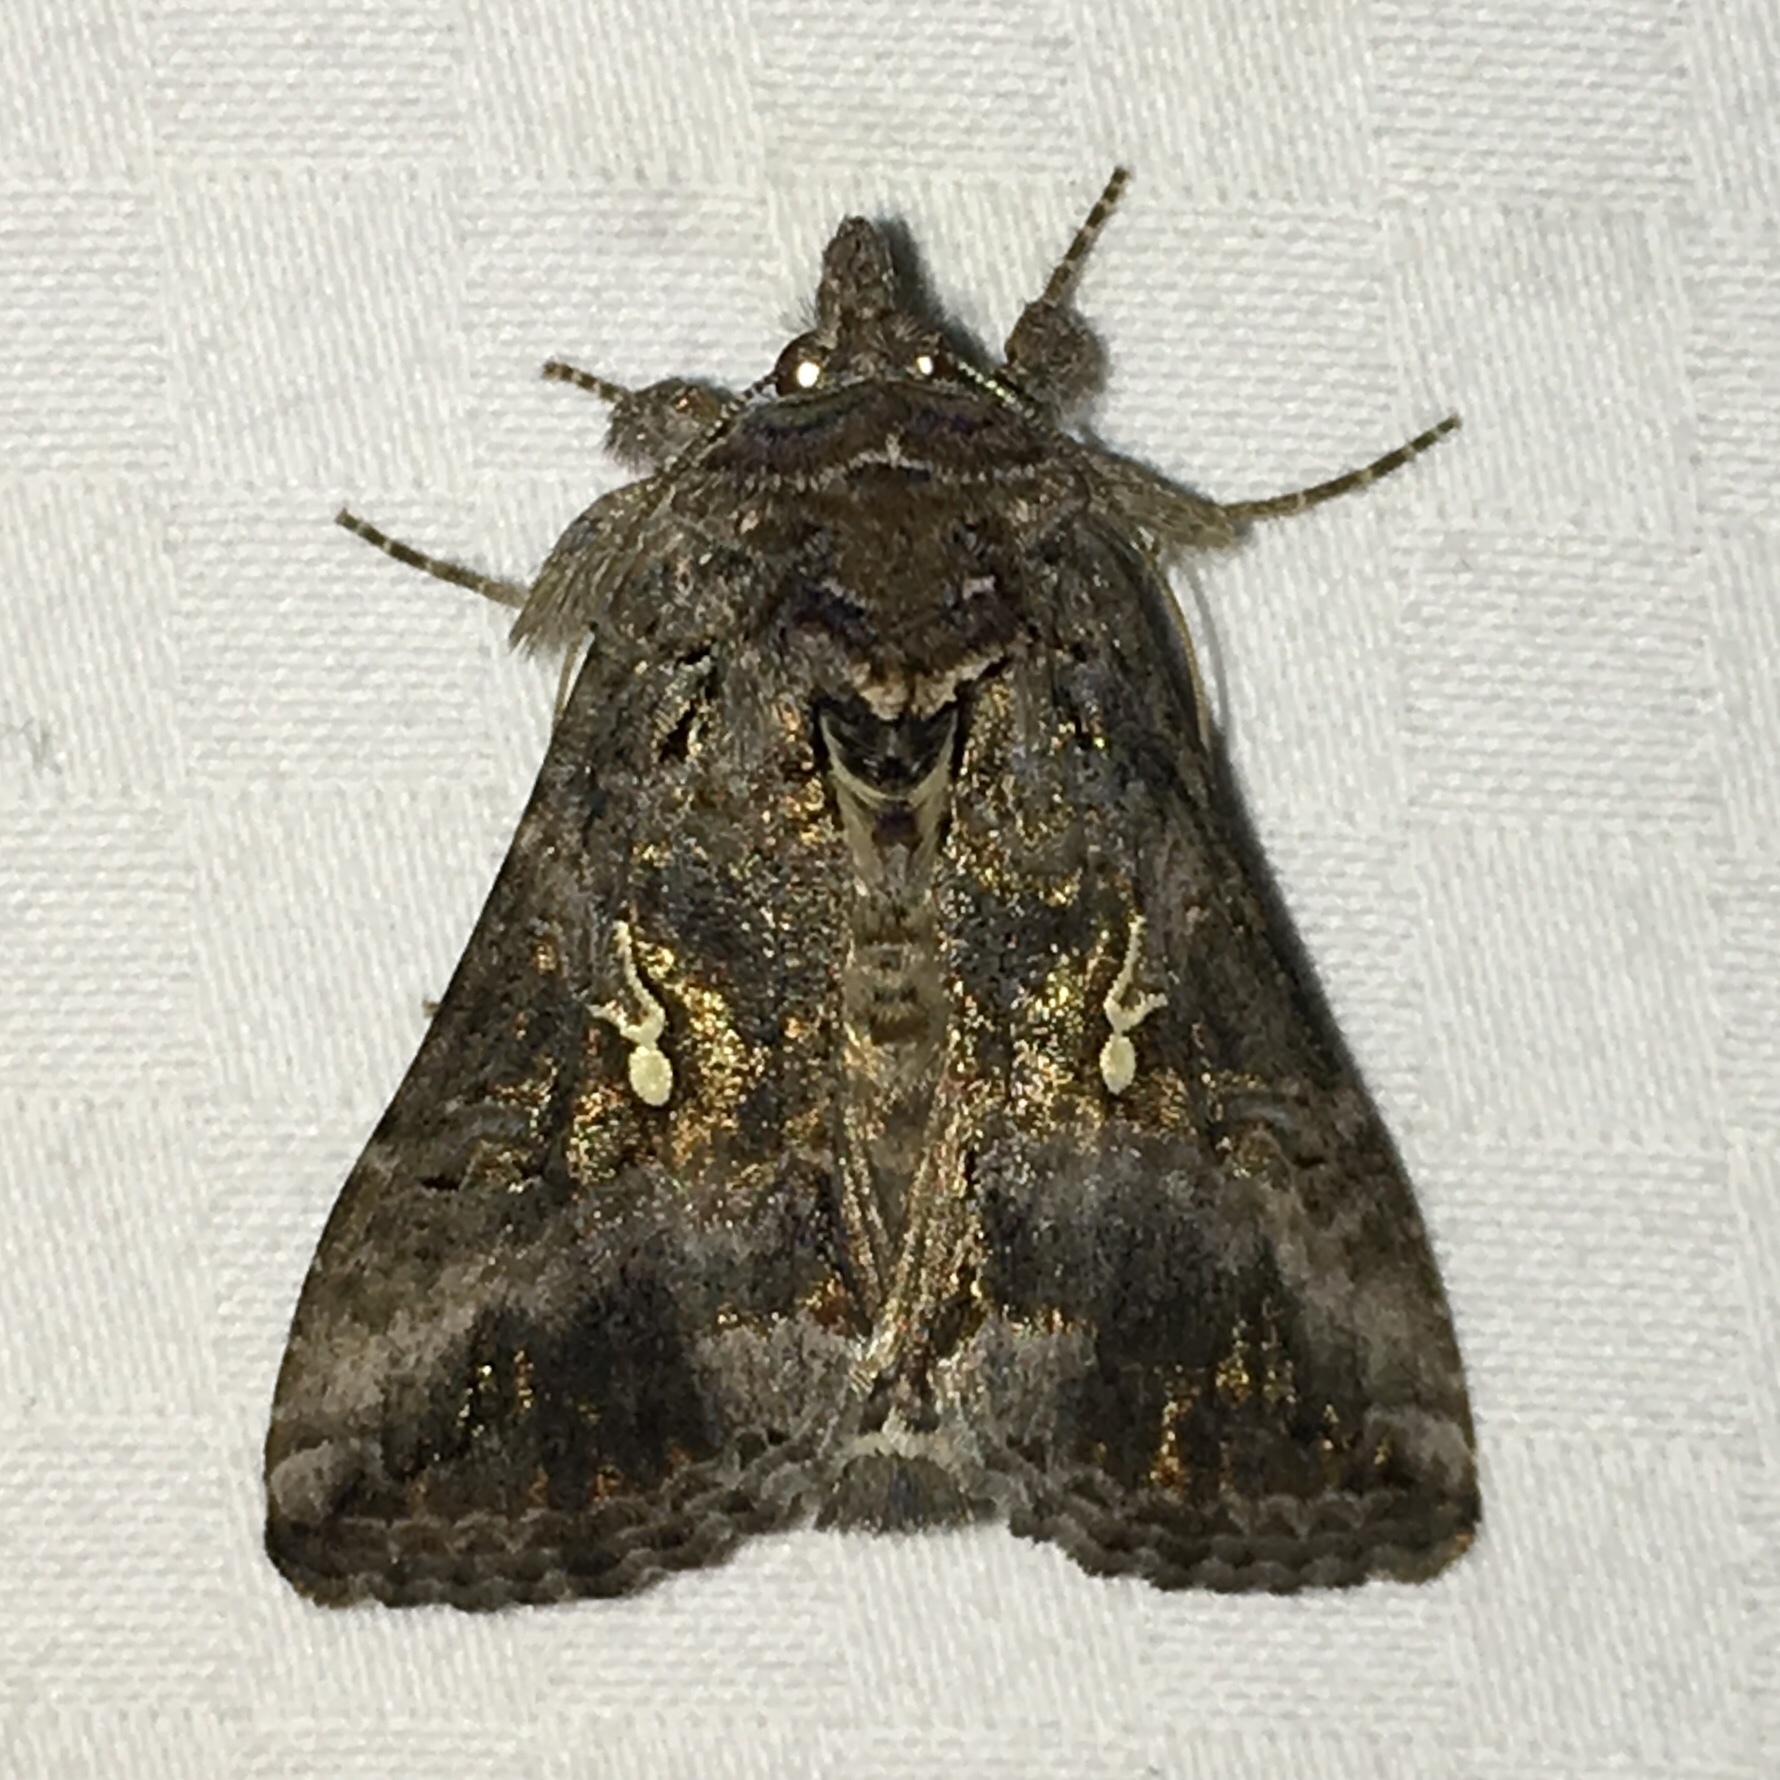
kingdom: Animalia
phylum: Arthropoda
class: Insecta
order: Lepidoptera
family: Noctuidae
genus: Rachiplusia
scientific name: Rachiplusia ou
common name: Gray looper moth
